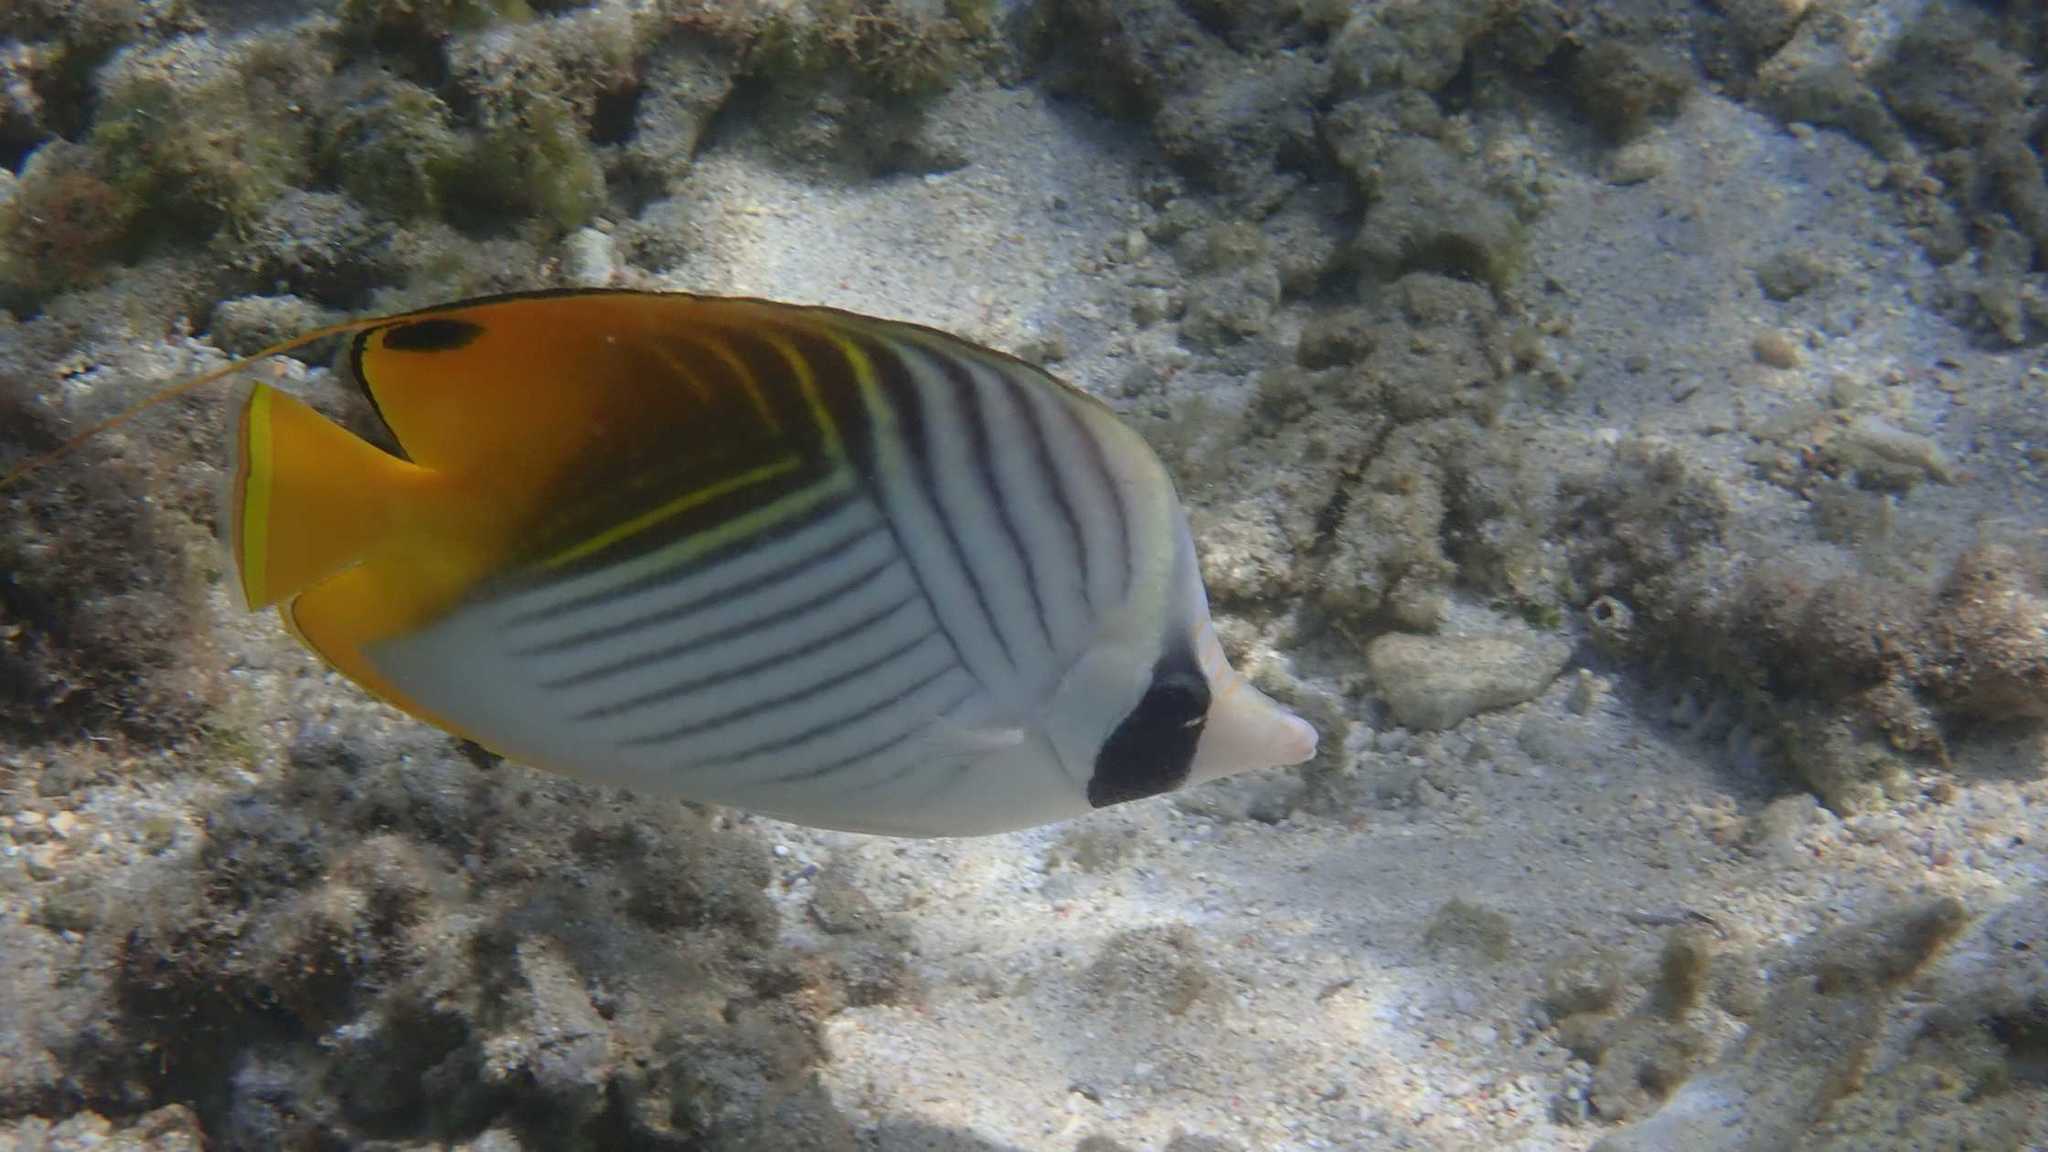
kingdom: Animalia
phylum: Chordata
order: Perciformes
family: Chaetodontidae
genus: Chaetodon
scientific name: Chaetodon auriga
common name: Threadfin butterflyfish
